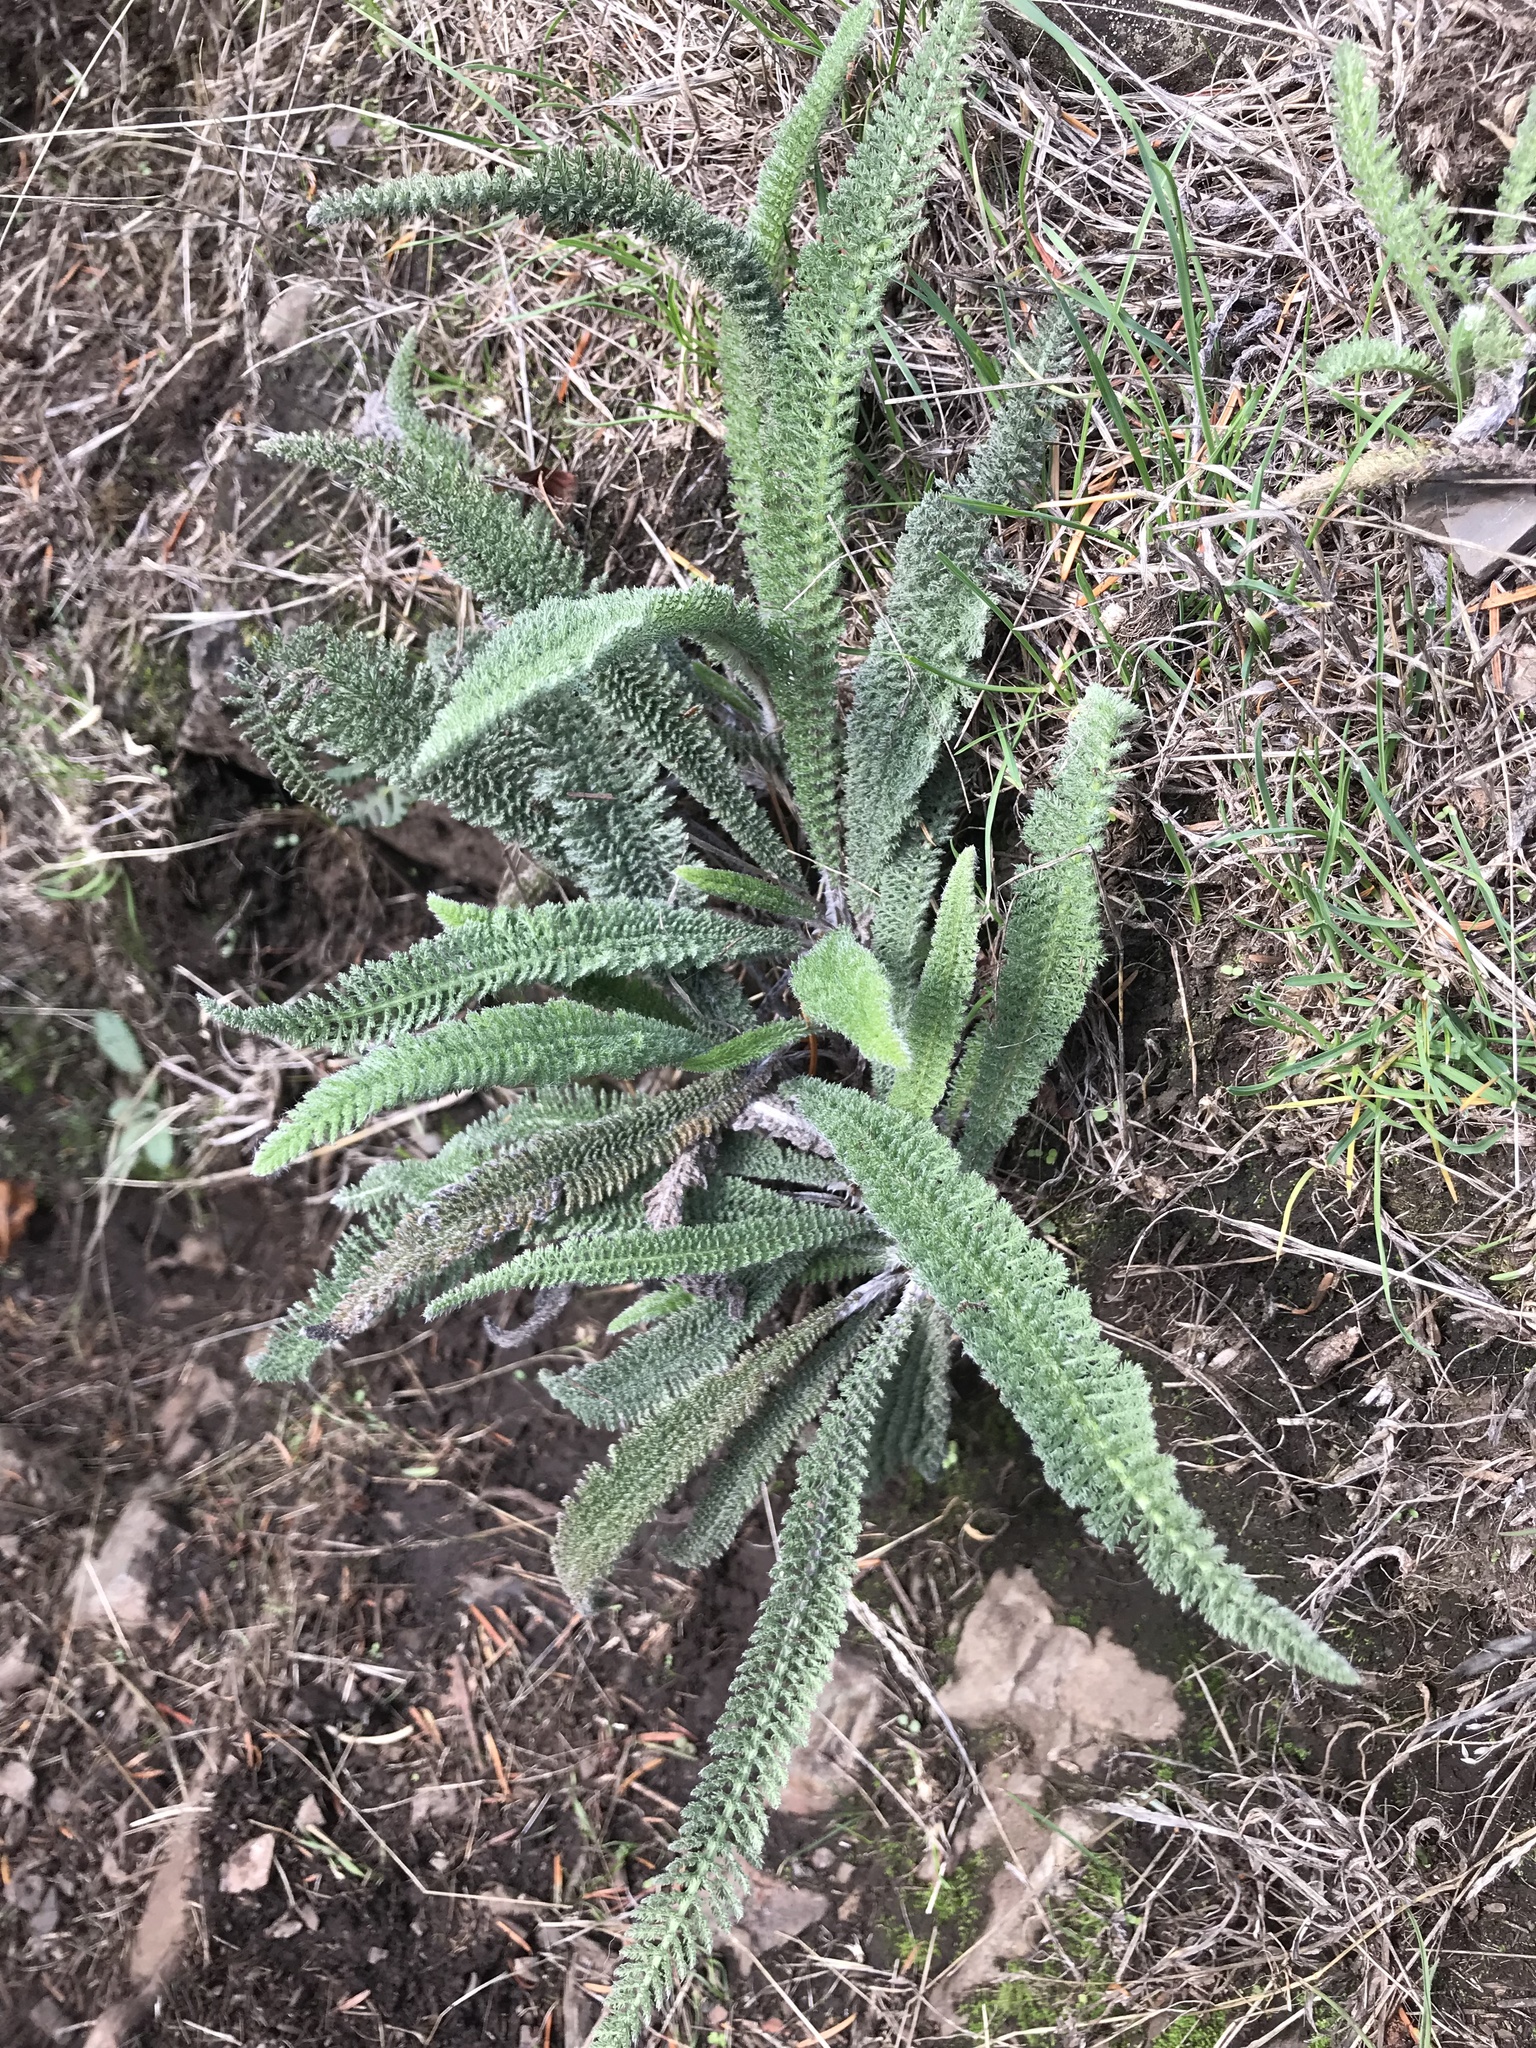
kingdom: Plantae
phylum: Tracheophyta
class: Magnoliopsida
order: Asterales
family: Asteraceae
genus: Achillea
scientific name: Achillea millefolium
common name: Yarrow
